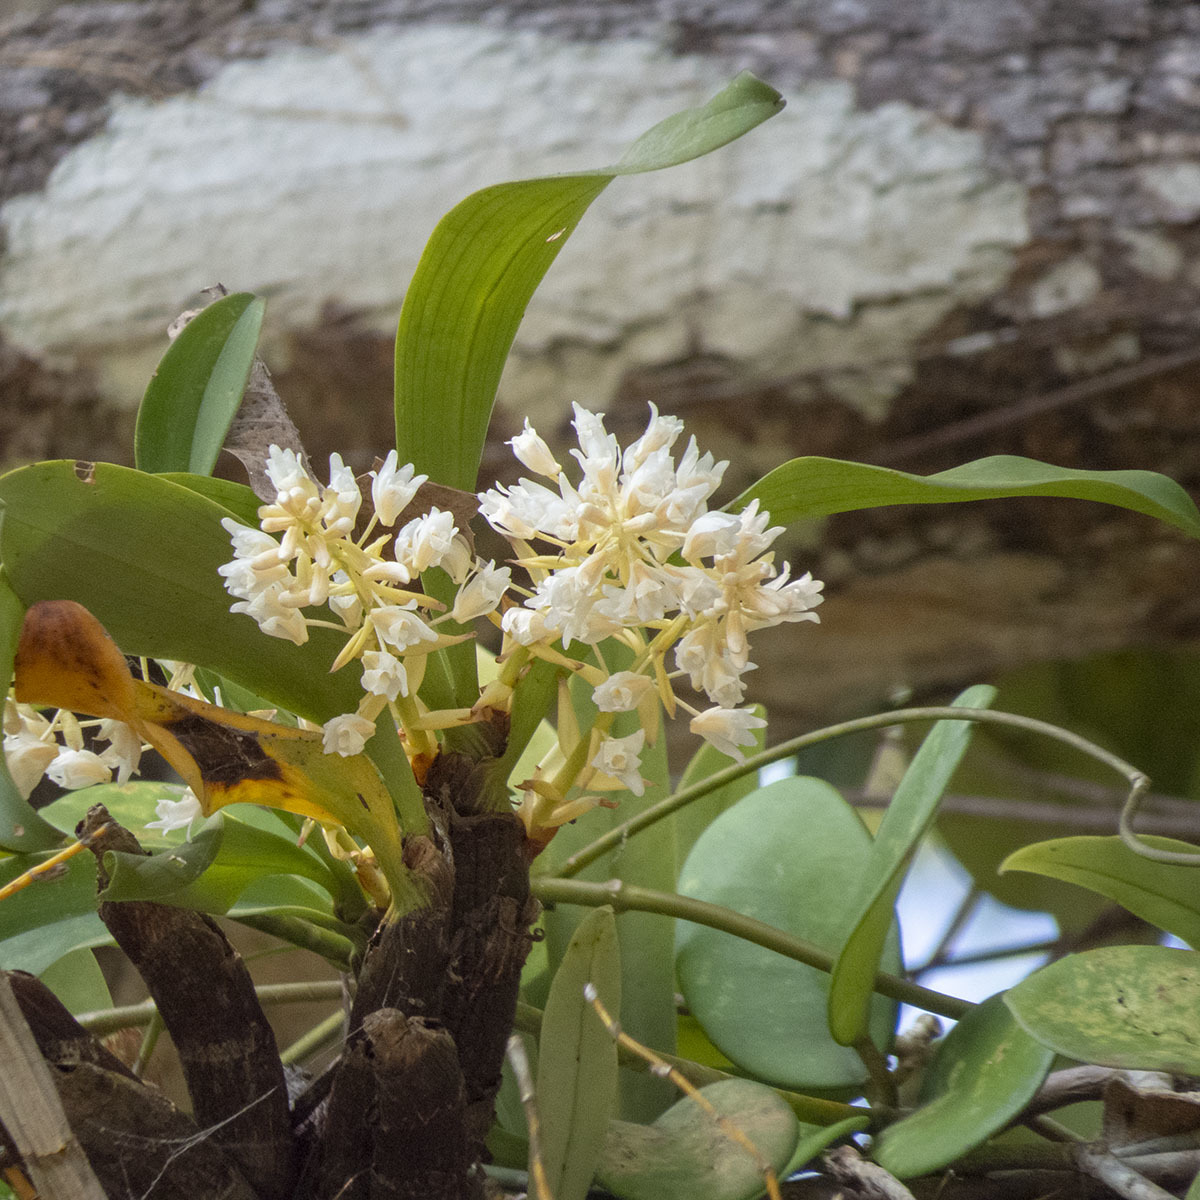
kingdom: Plantae
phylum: Tracheophyta
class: Liliopsida
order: Asparagales
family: Orchidaceae
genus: Pinalia
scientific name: Pinalia bractescens
